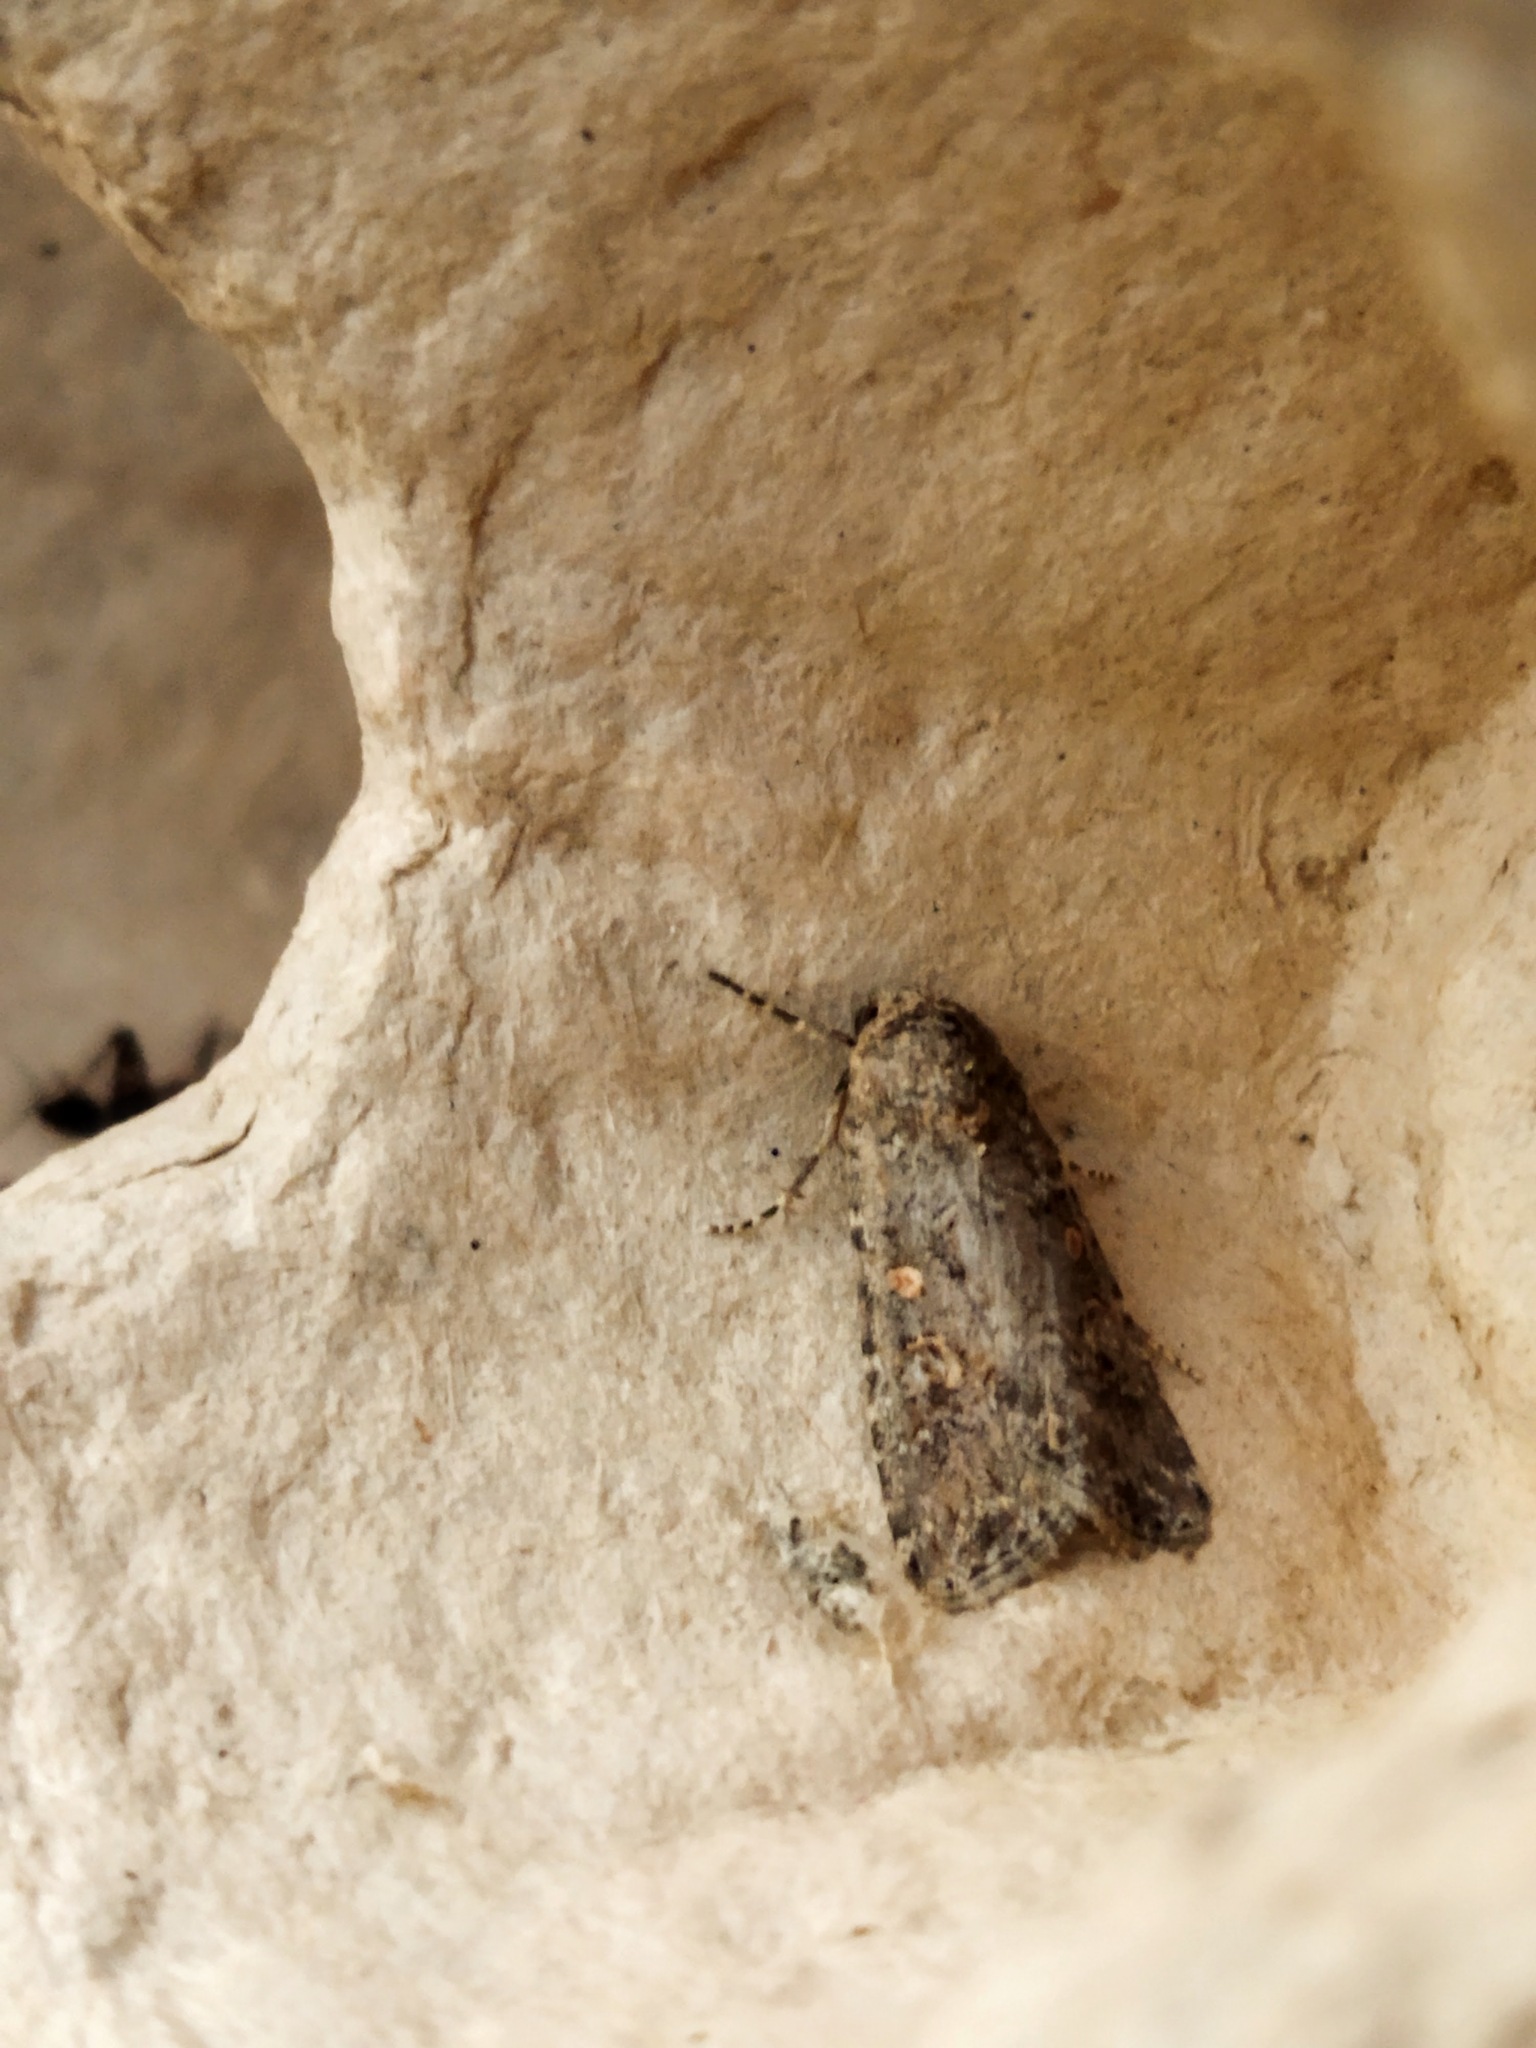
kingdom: Animalia
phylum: Arthropoda
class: Insecta
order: Lepidoptera
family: Noctuidae
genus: Spodoptera
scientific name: Spodoptera exigua
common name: Beet armyworm
